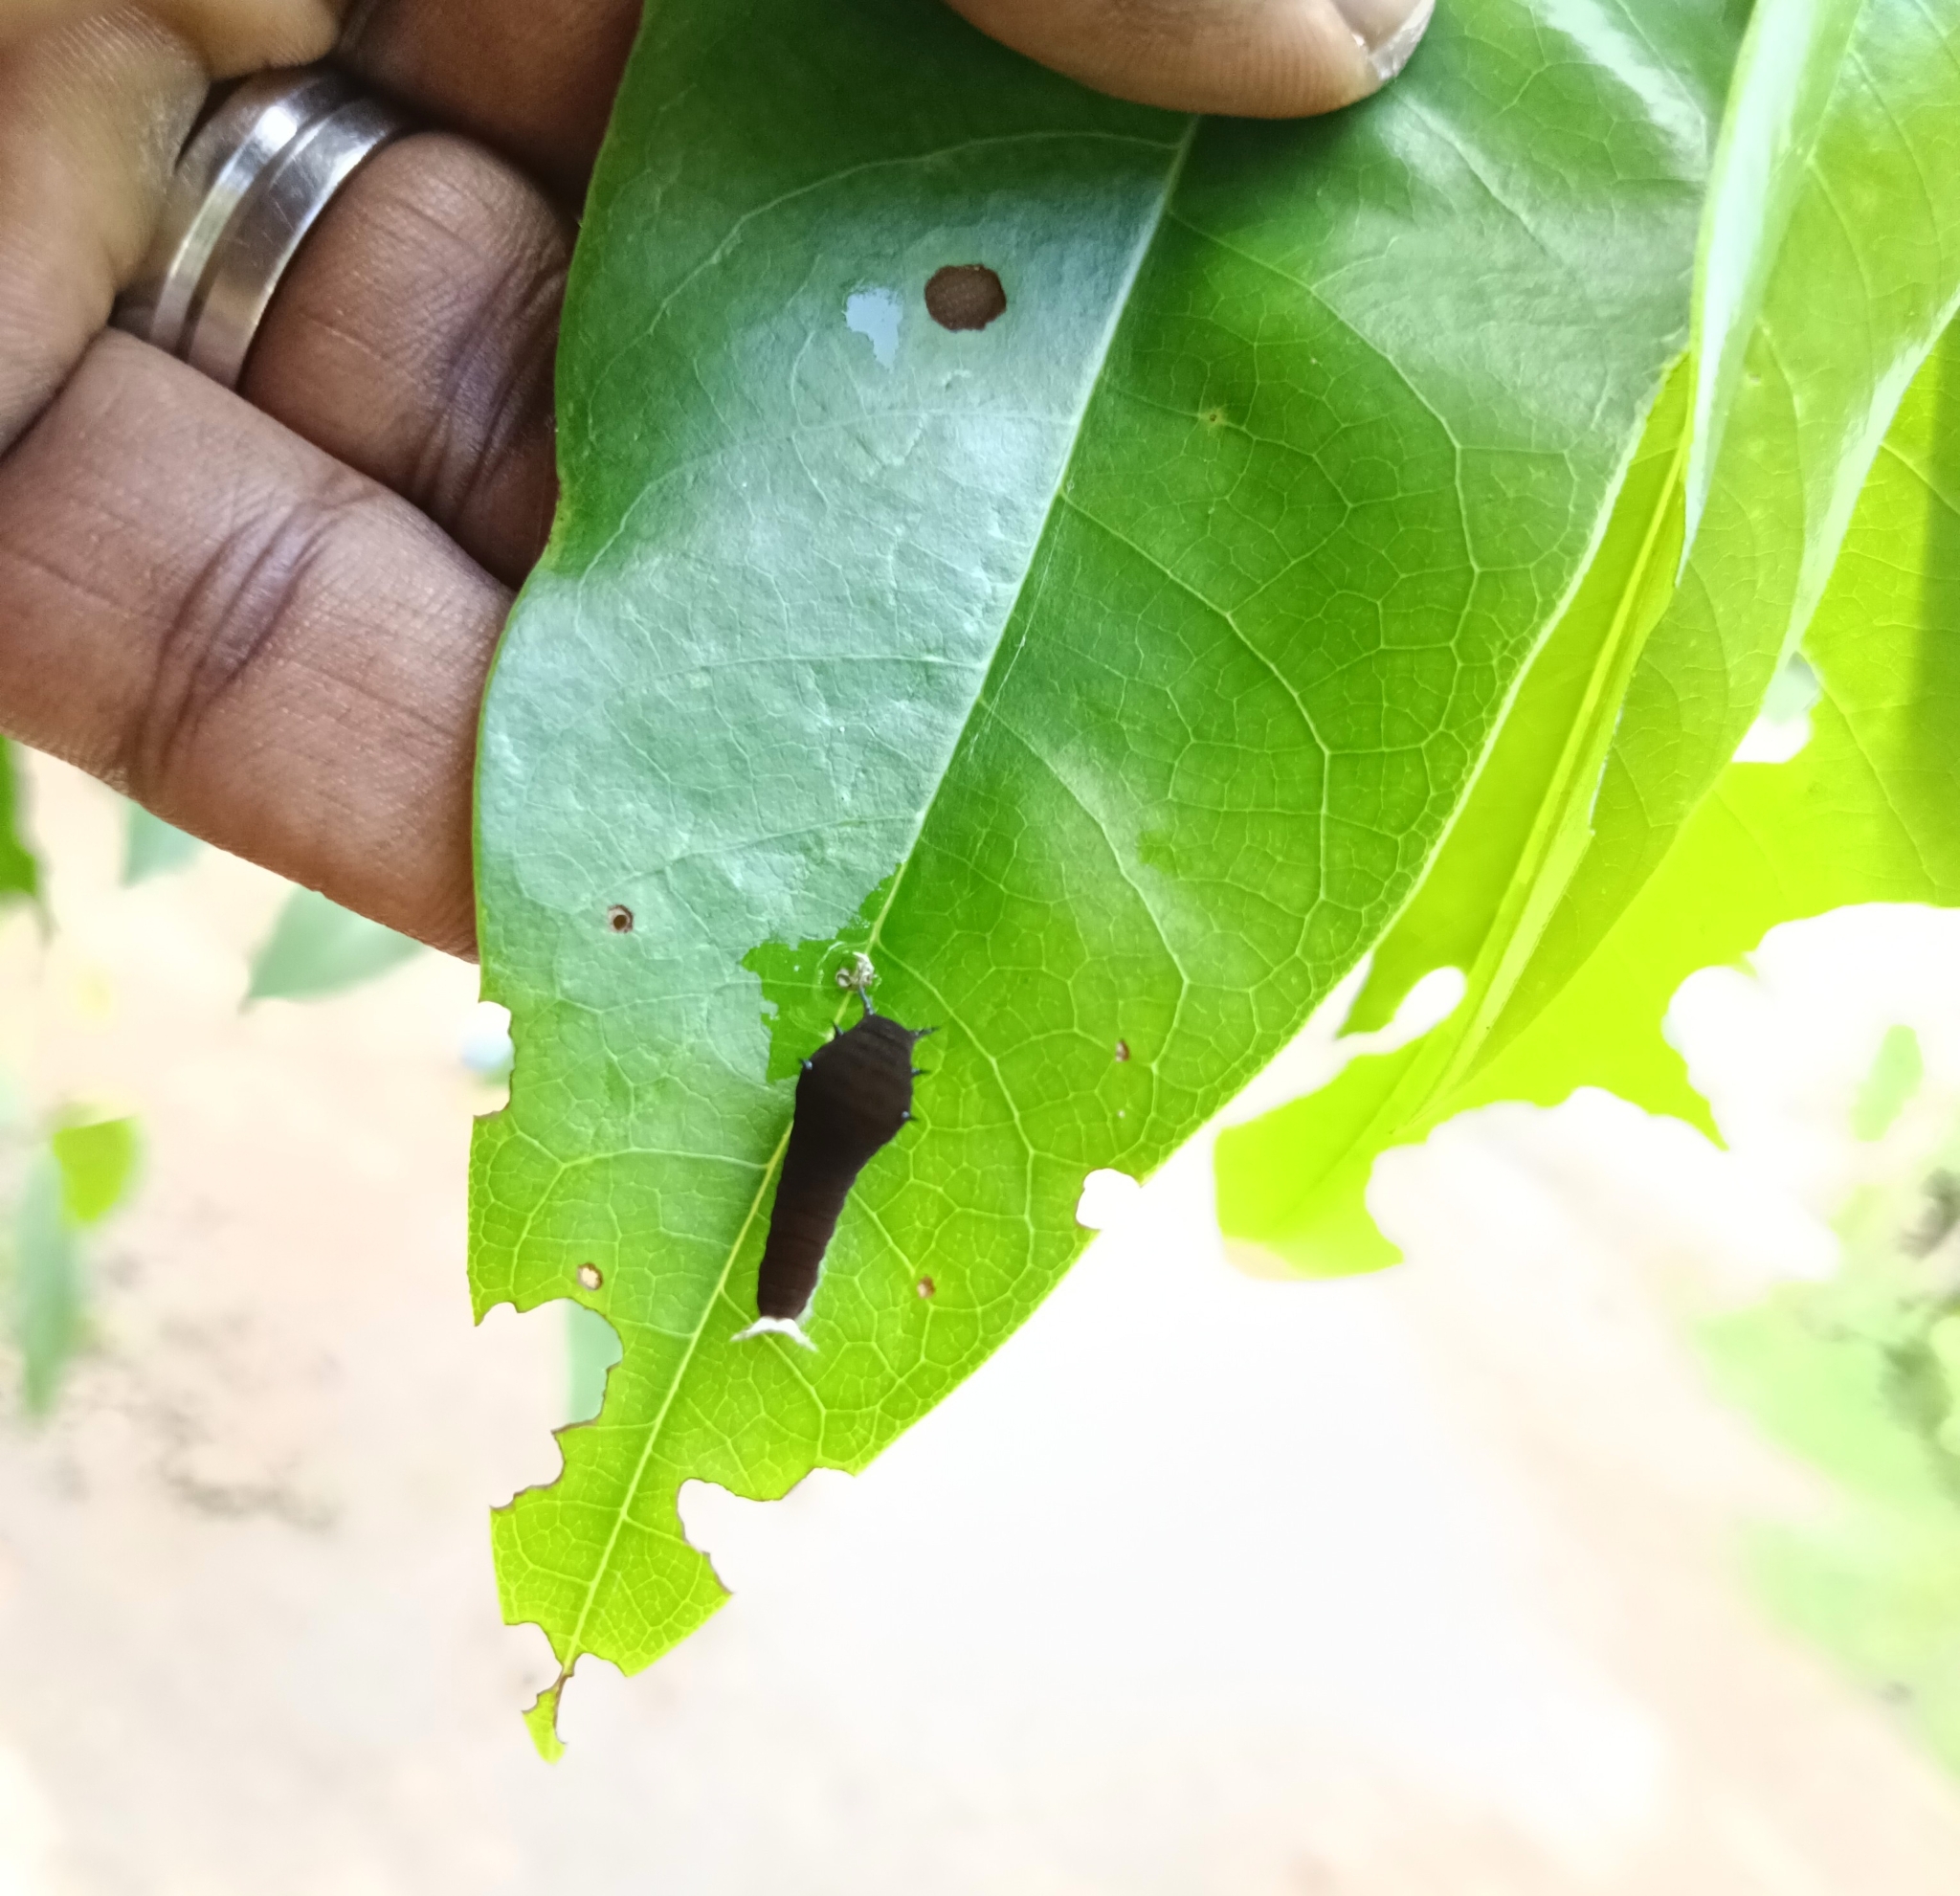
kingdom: Animalia
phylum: Arthropoda
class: Insecta
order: Lepidoptera
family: Papilionidae
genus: Graphium
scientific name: Graphium doson
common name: Common jay
